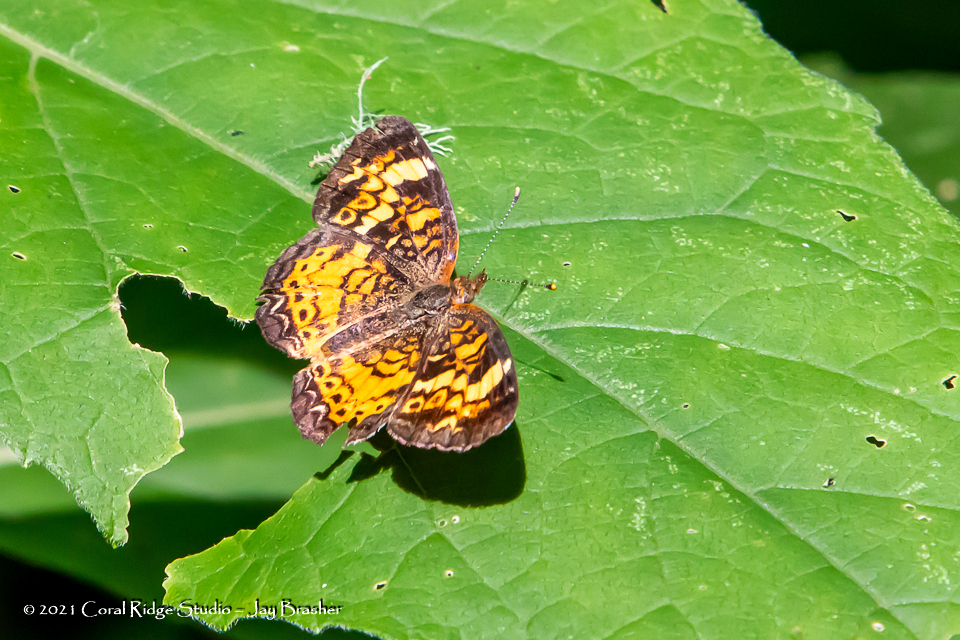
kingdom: Animalia
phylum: Arthropoda
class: Insecta
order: Lepidoptera
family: Nymphalidae
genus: Phyciodes
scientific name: Phyciodes tharos
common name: Pearl crescent
